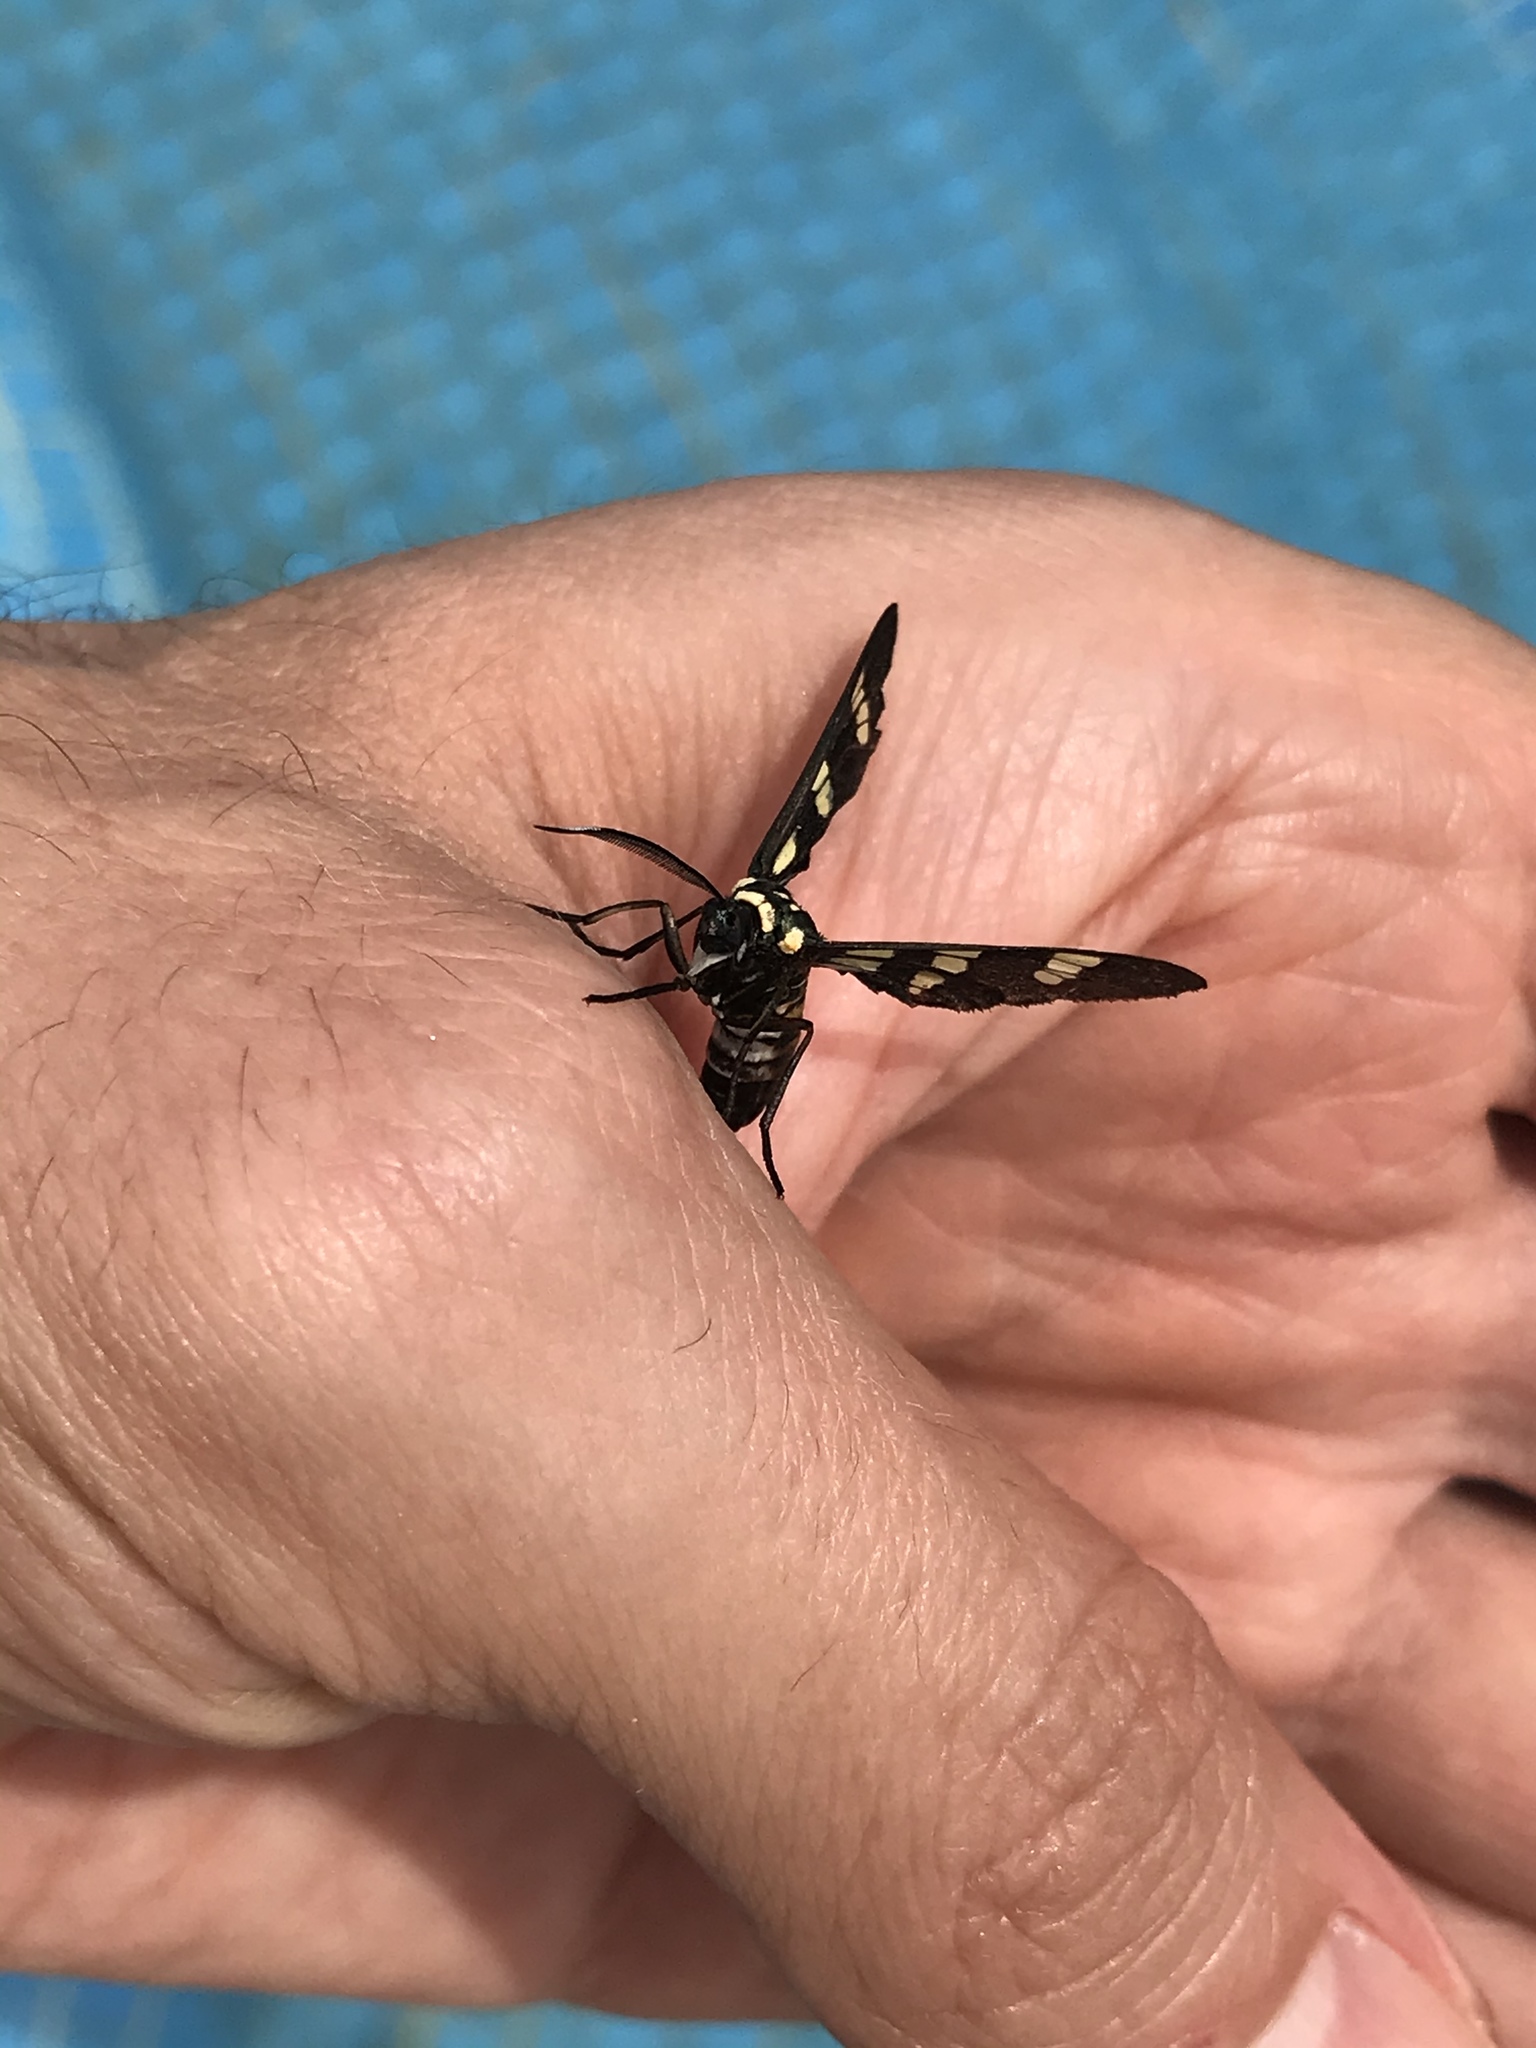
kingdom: Animalia
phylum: Arthropoda
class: Insecta
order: Lepidoptera
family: Erebidae
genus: Syntomeida
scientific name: Syntomeida melanthus
